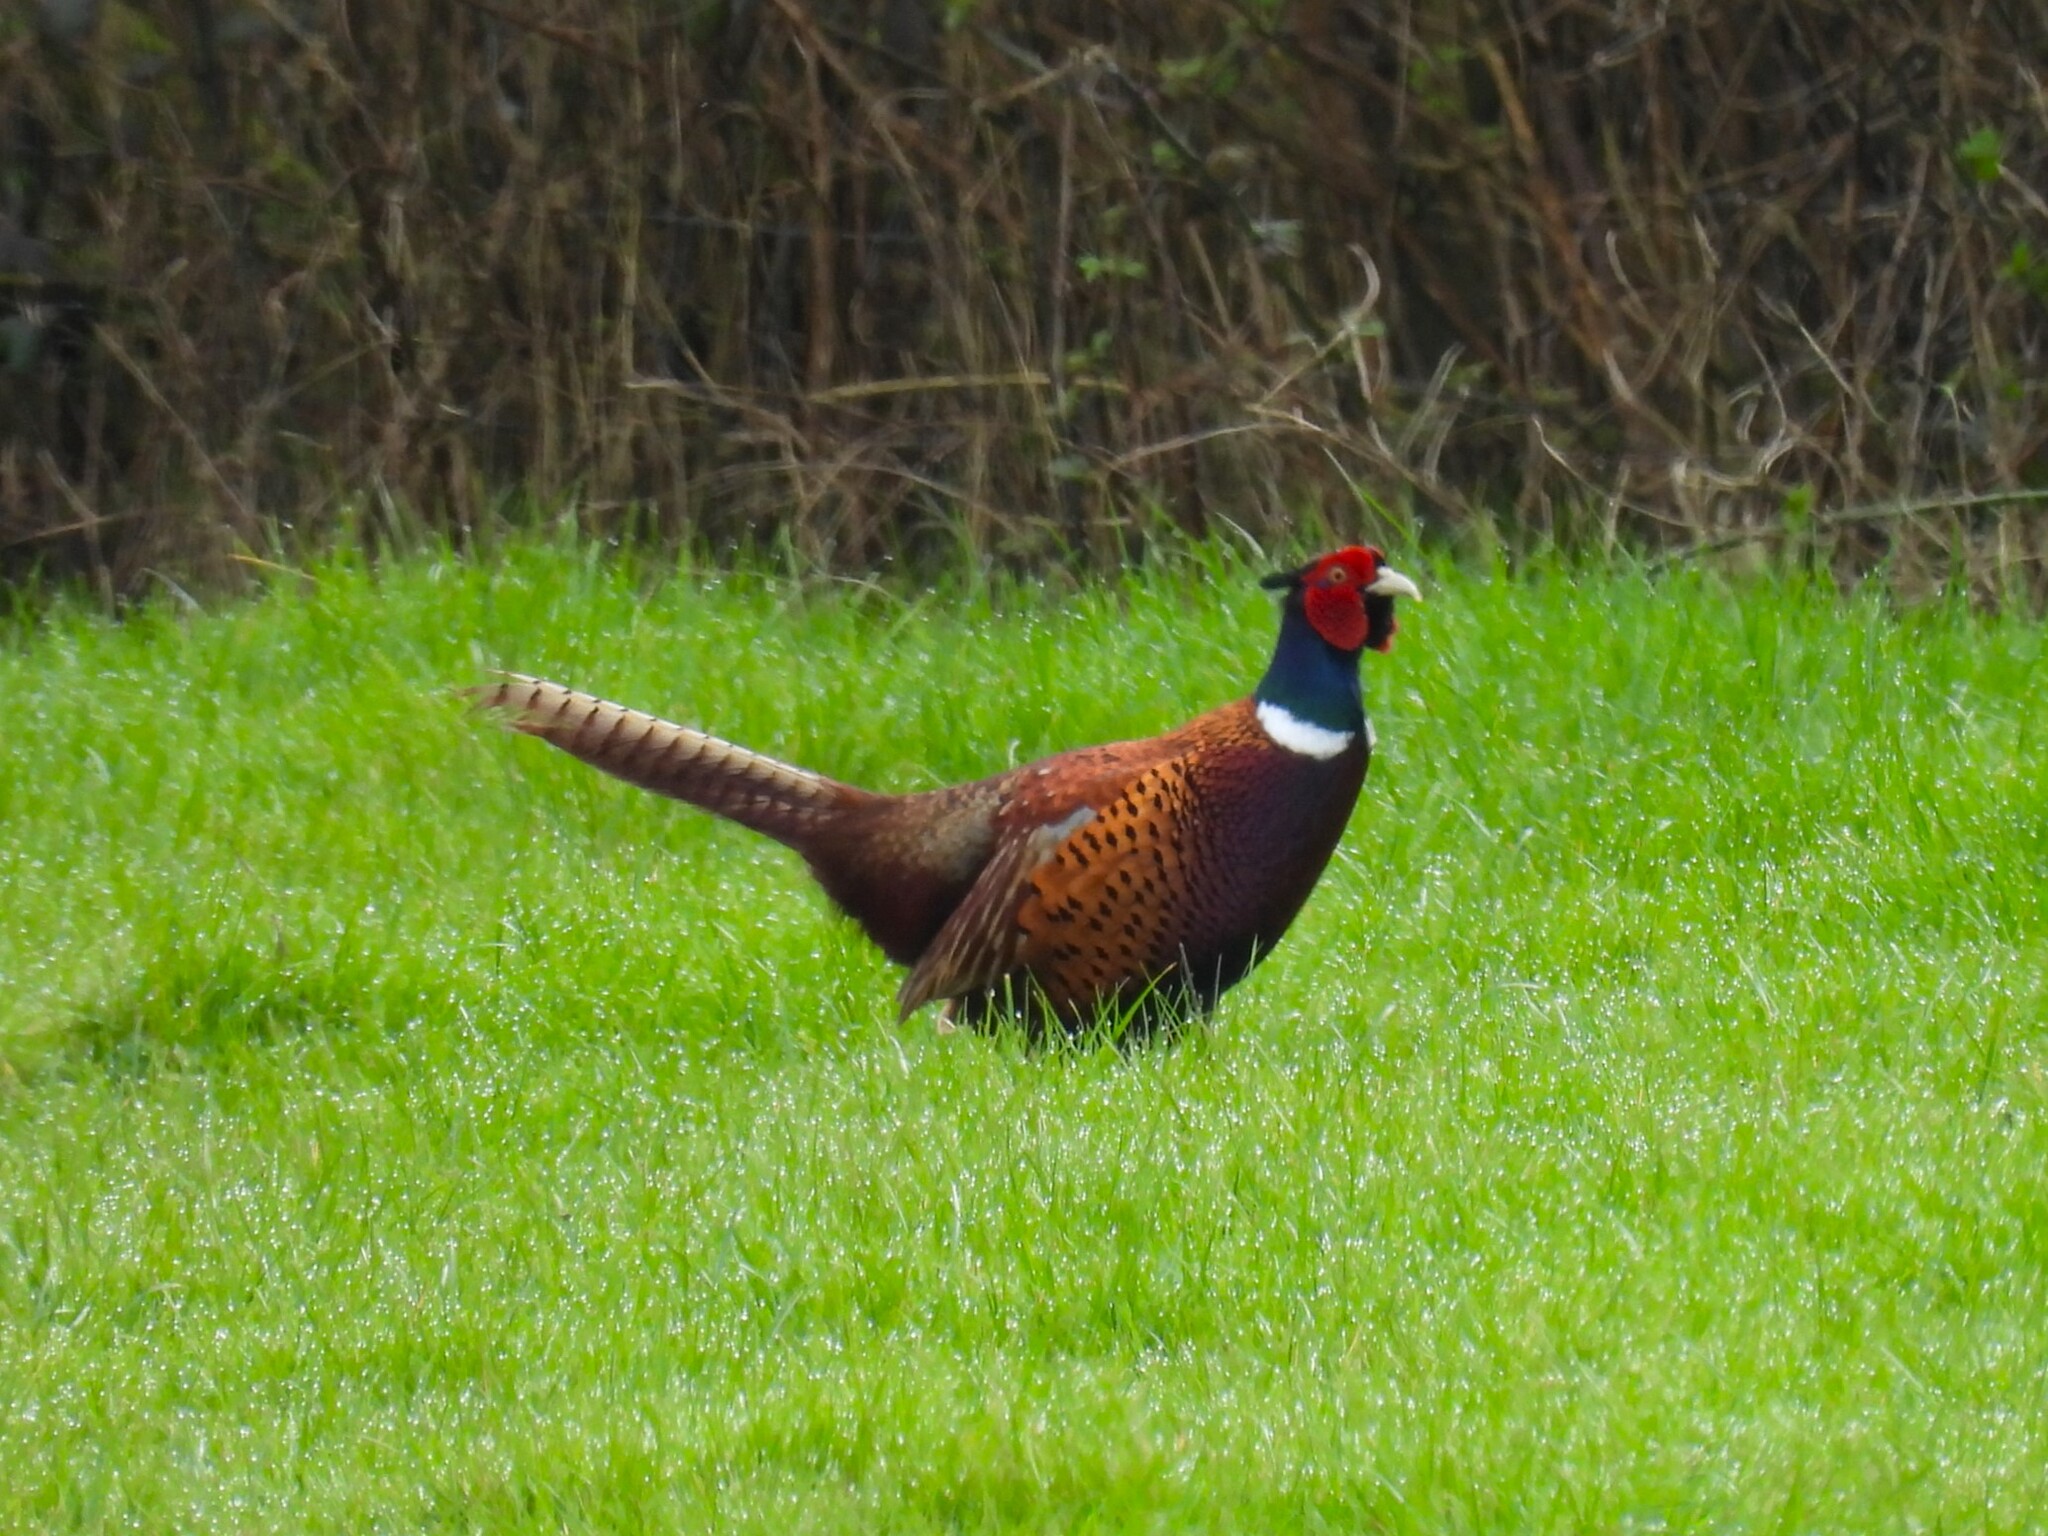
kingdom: Animalia
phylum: Chordata
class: Aves
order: Galliformes
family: Phasianidae
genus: Phasianus
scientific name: Phasianus colchicus
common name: Common pheasant
